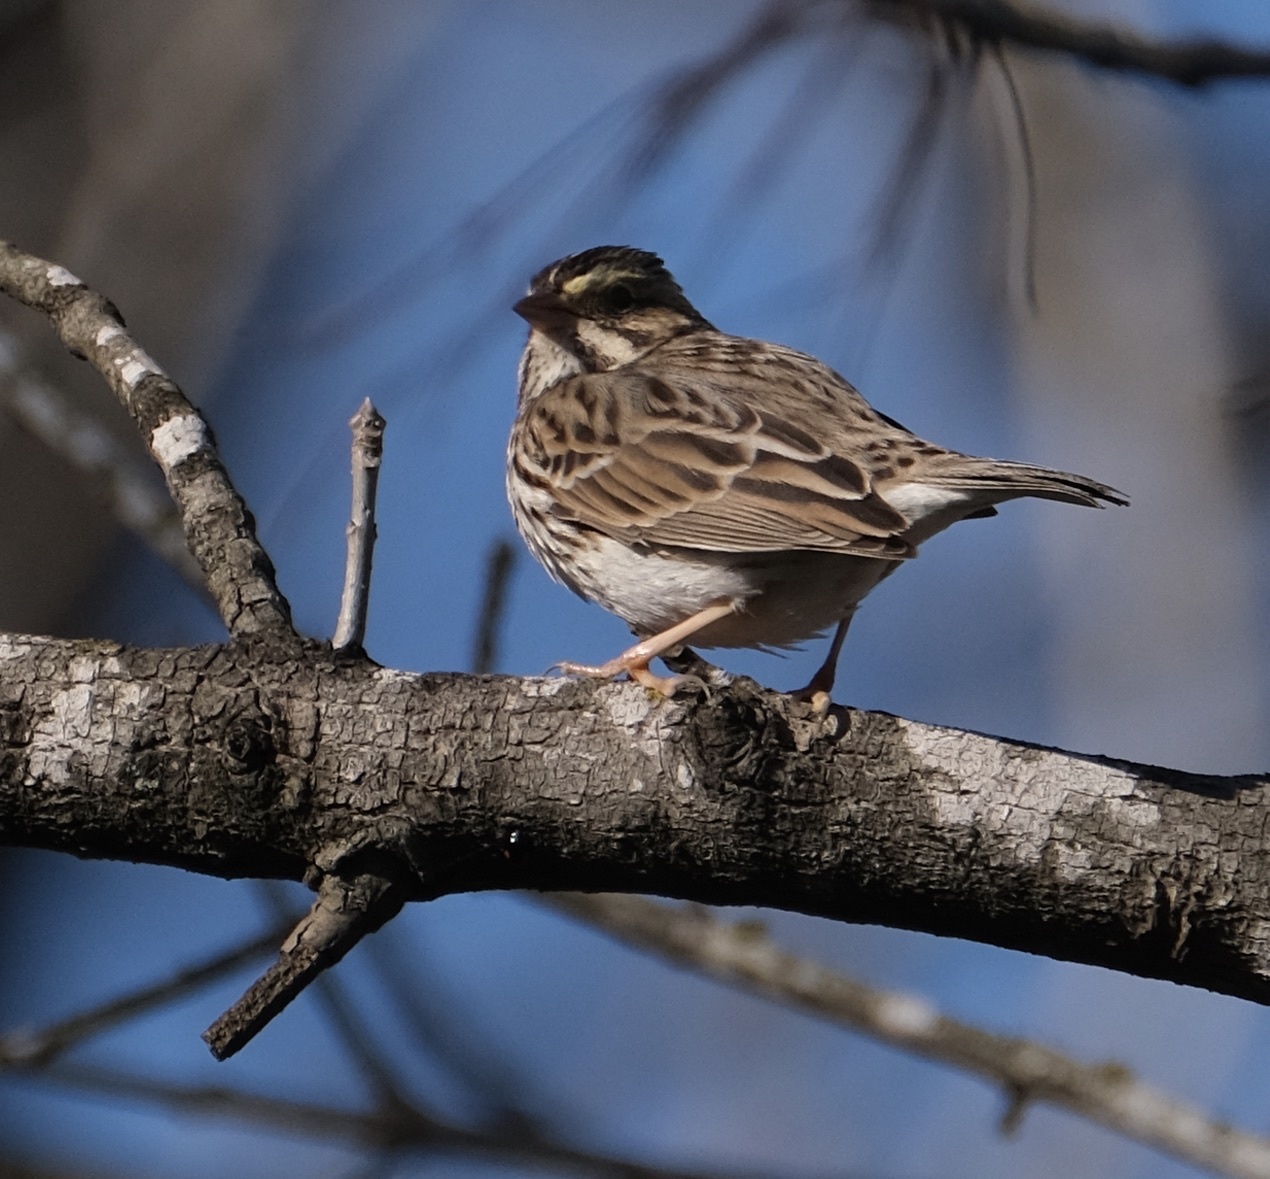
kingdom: Animalia
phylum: Chordata
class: Aves
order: Passeriformes
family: Passerellidae
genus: Passerculus
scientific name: Passerculus sandwichensis
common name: Savannah sparrow
